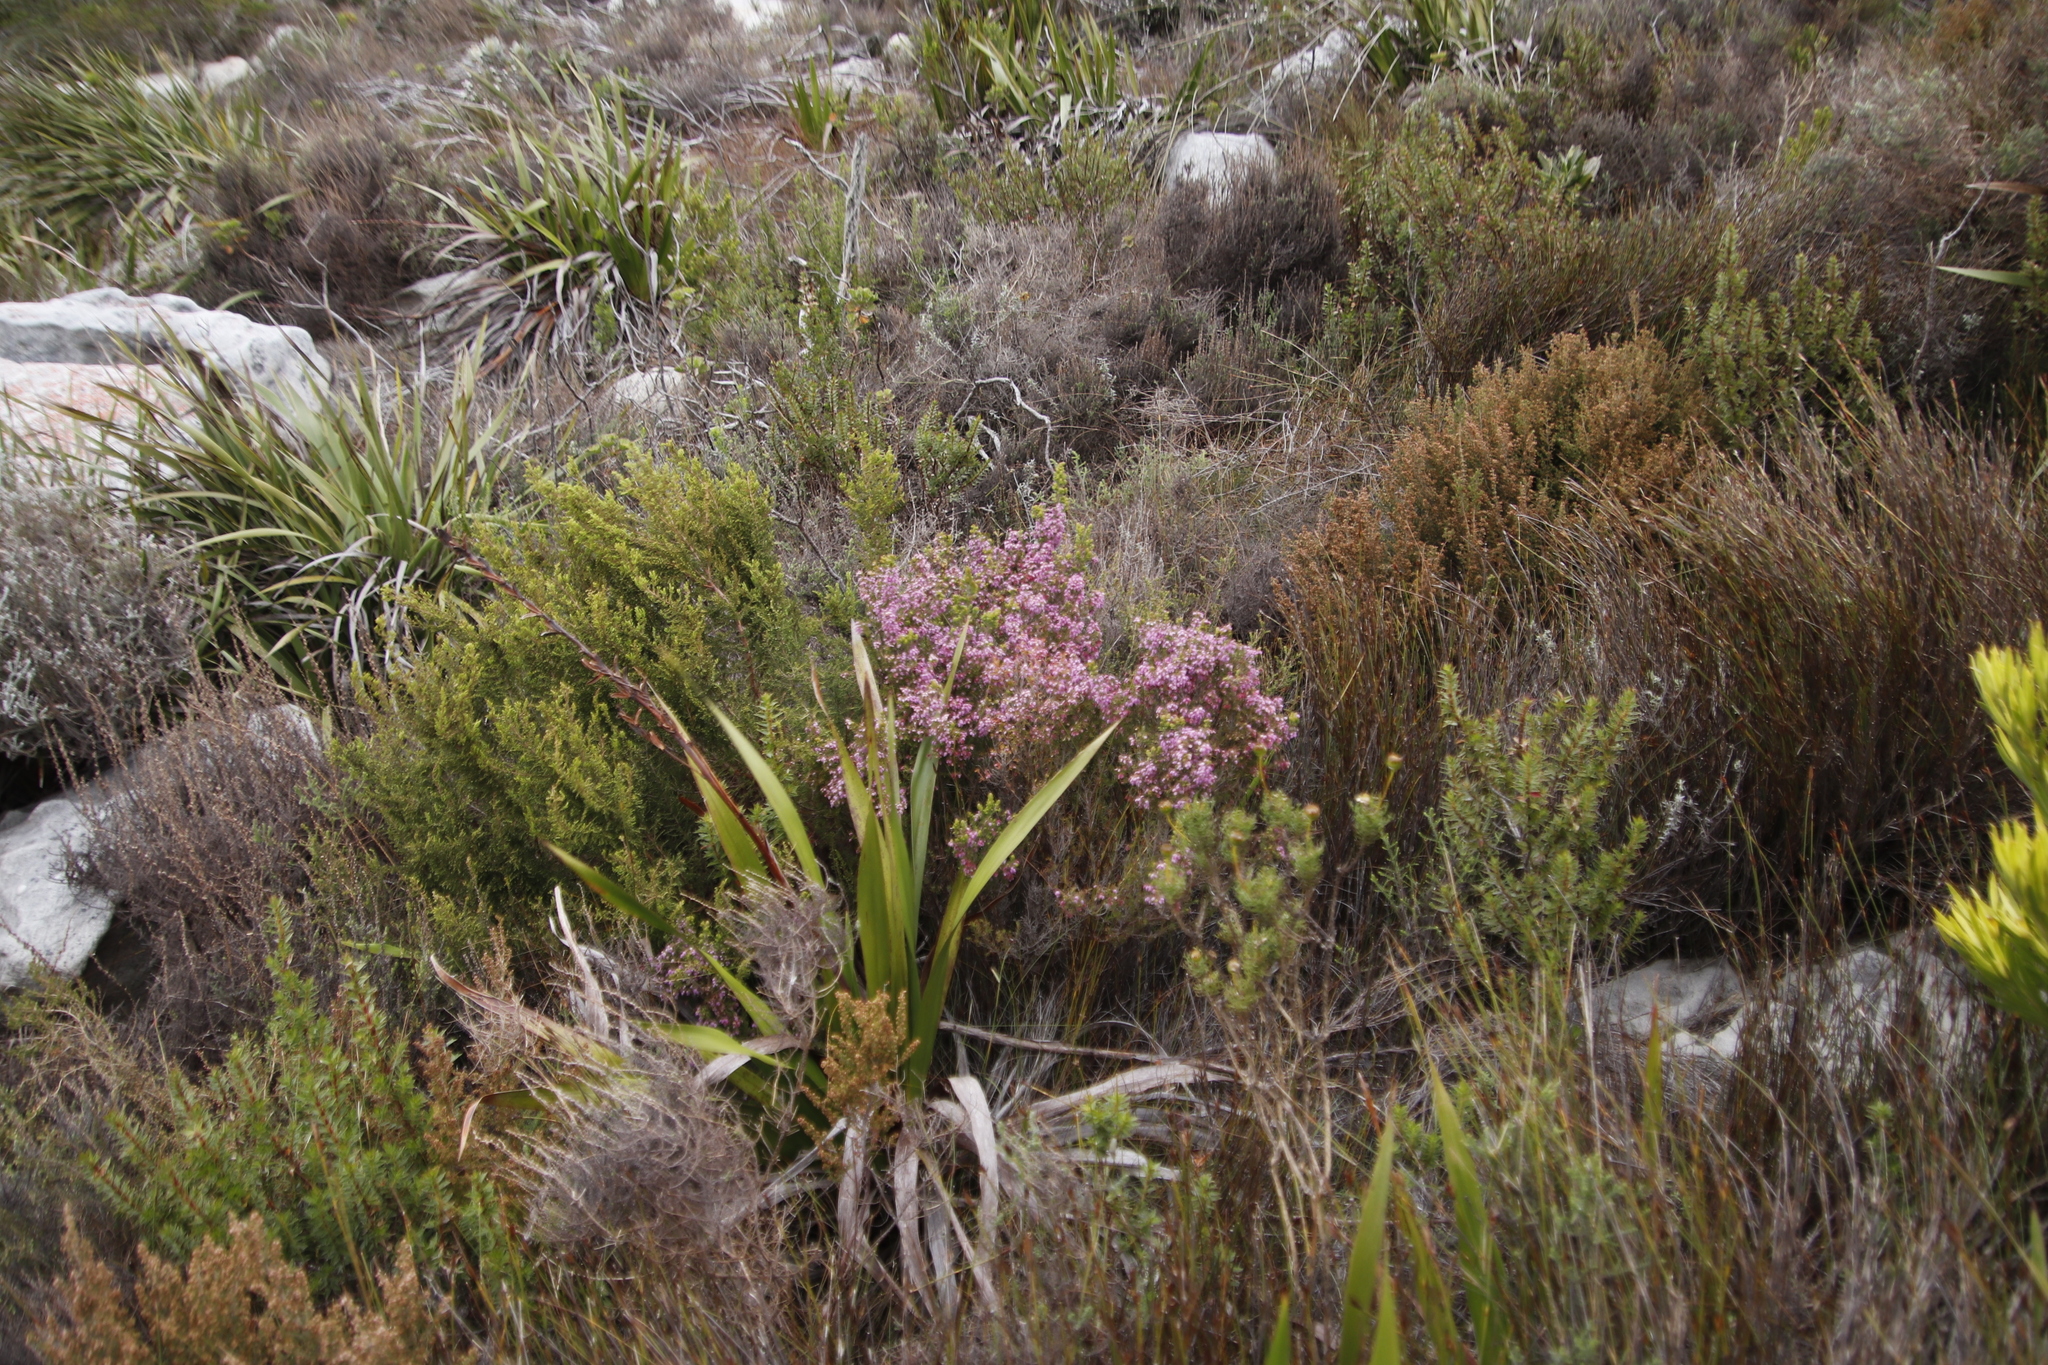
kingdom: Plantae
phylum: Tracheophyta
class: Magnoliopsida
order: Ericales
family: Ericaceae
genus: Erica
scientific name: Erica hirtiflora
